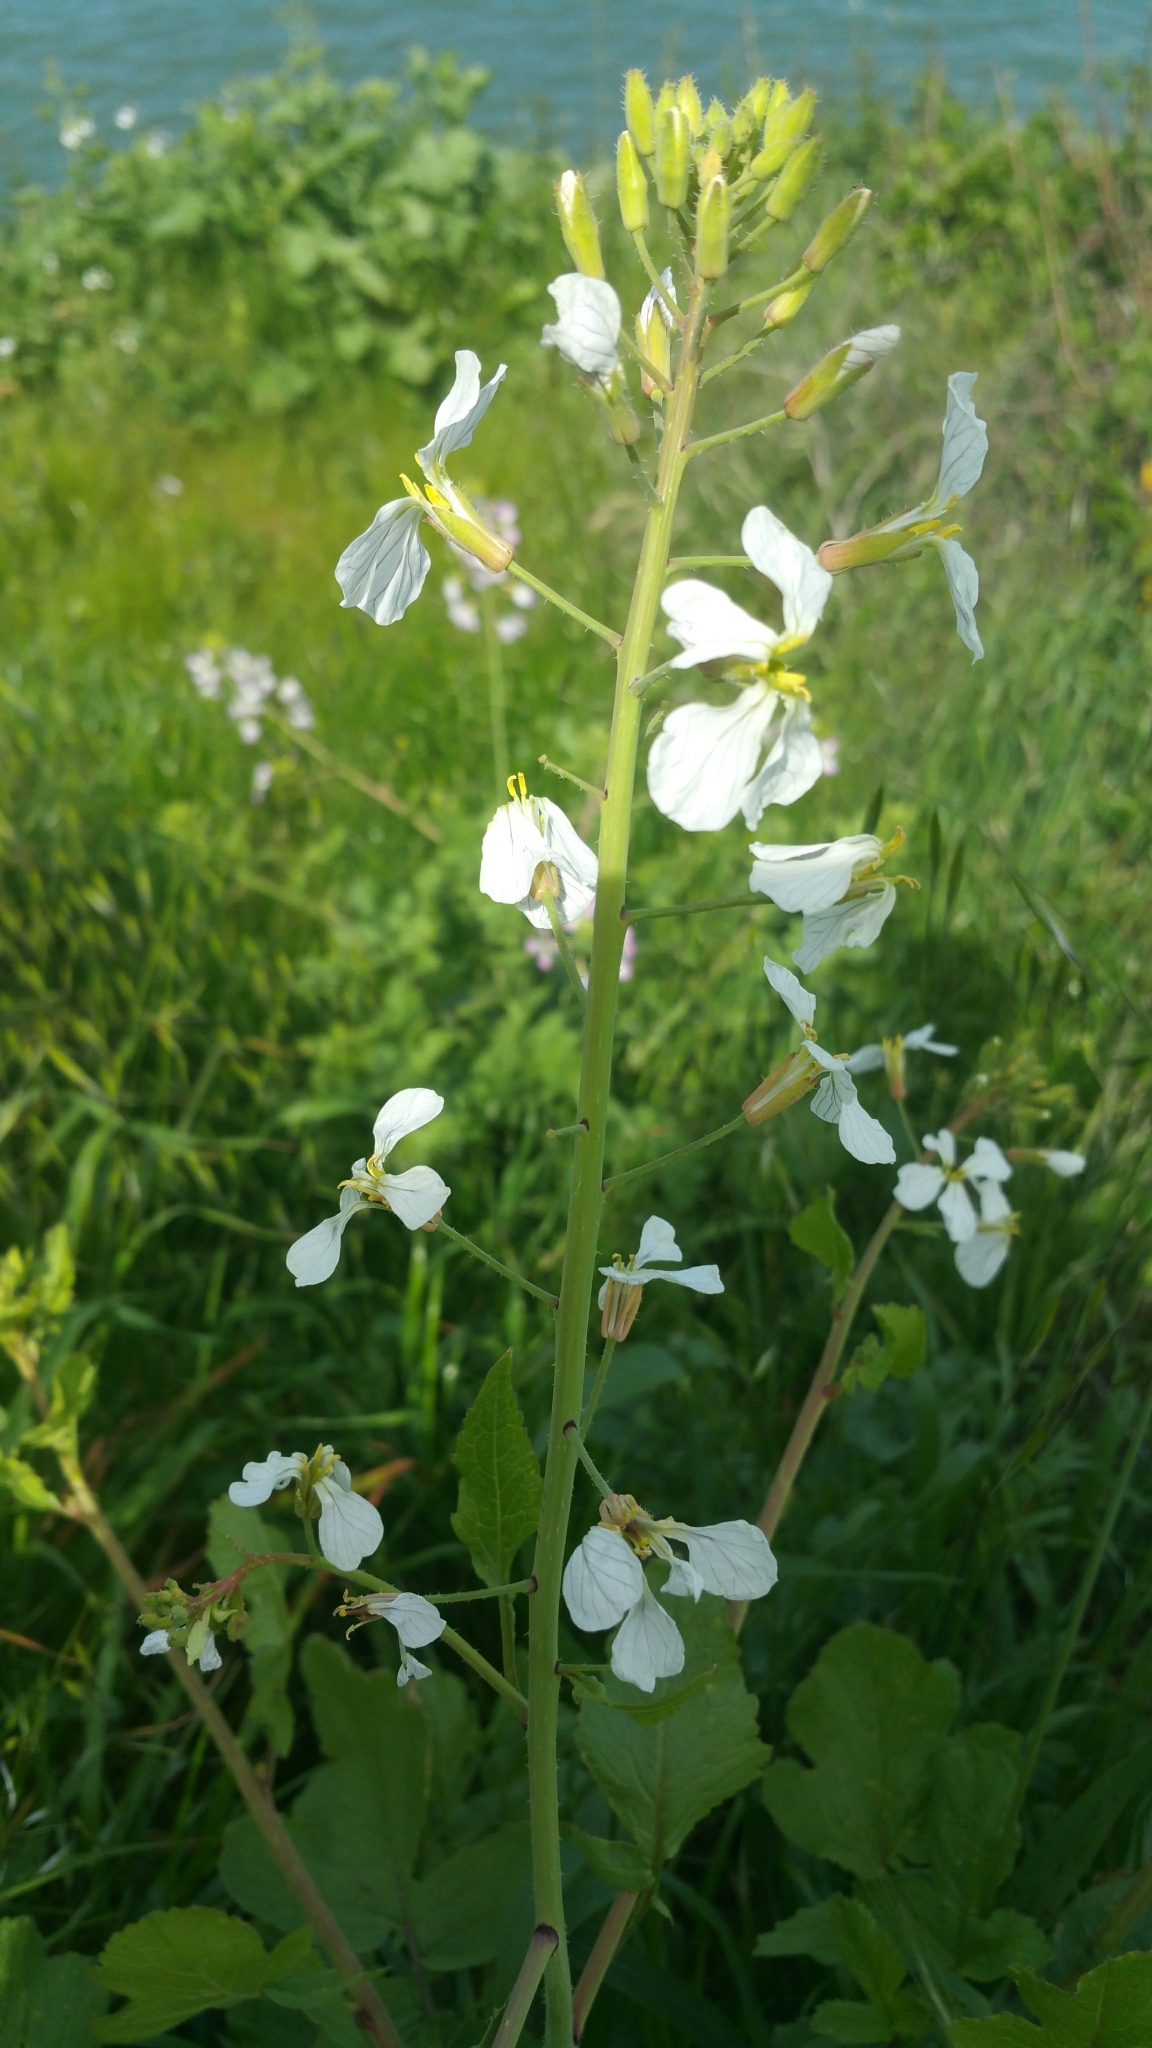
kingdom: Plantae
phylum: Tracheophyta
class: Magnoliopsida
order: Brassicales
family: Brassicaceae
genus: Raphanus
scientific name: Raphanus sativus
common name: Cultivated radish
